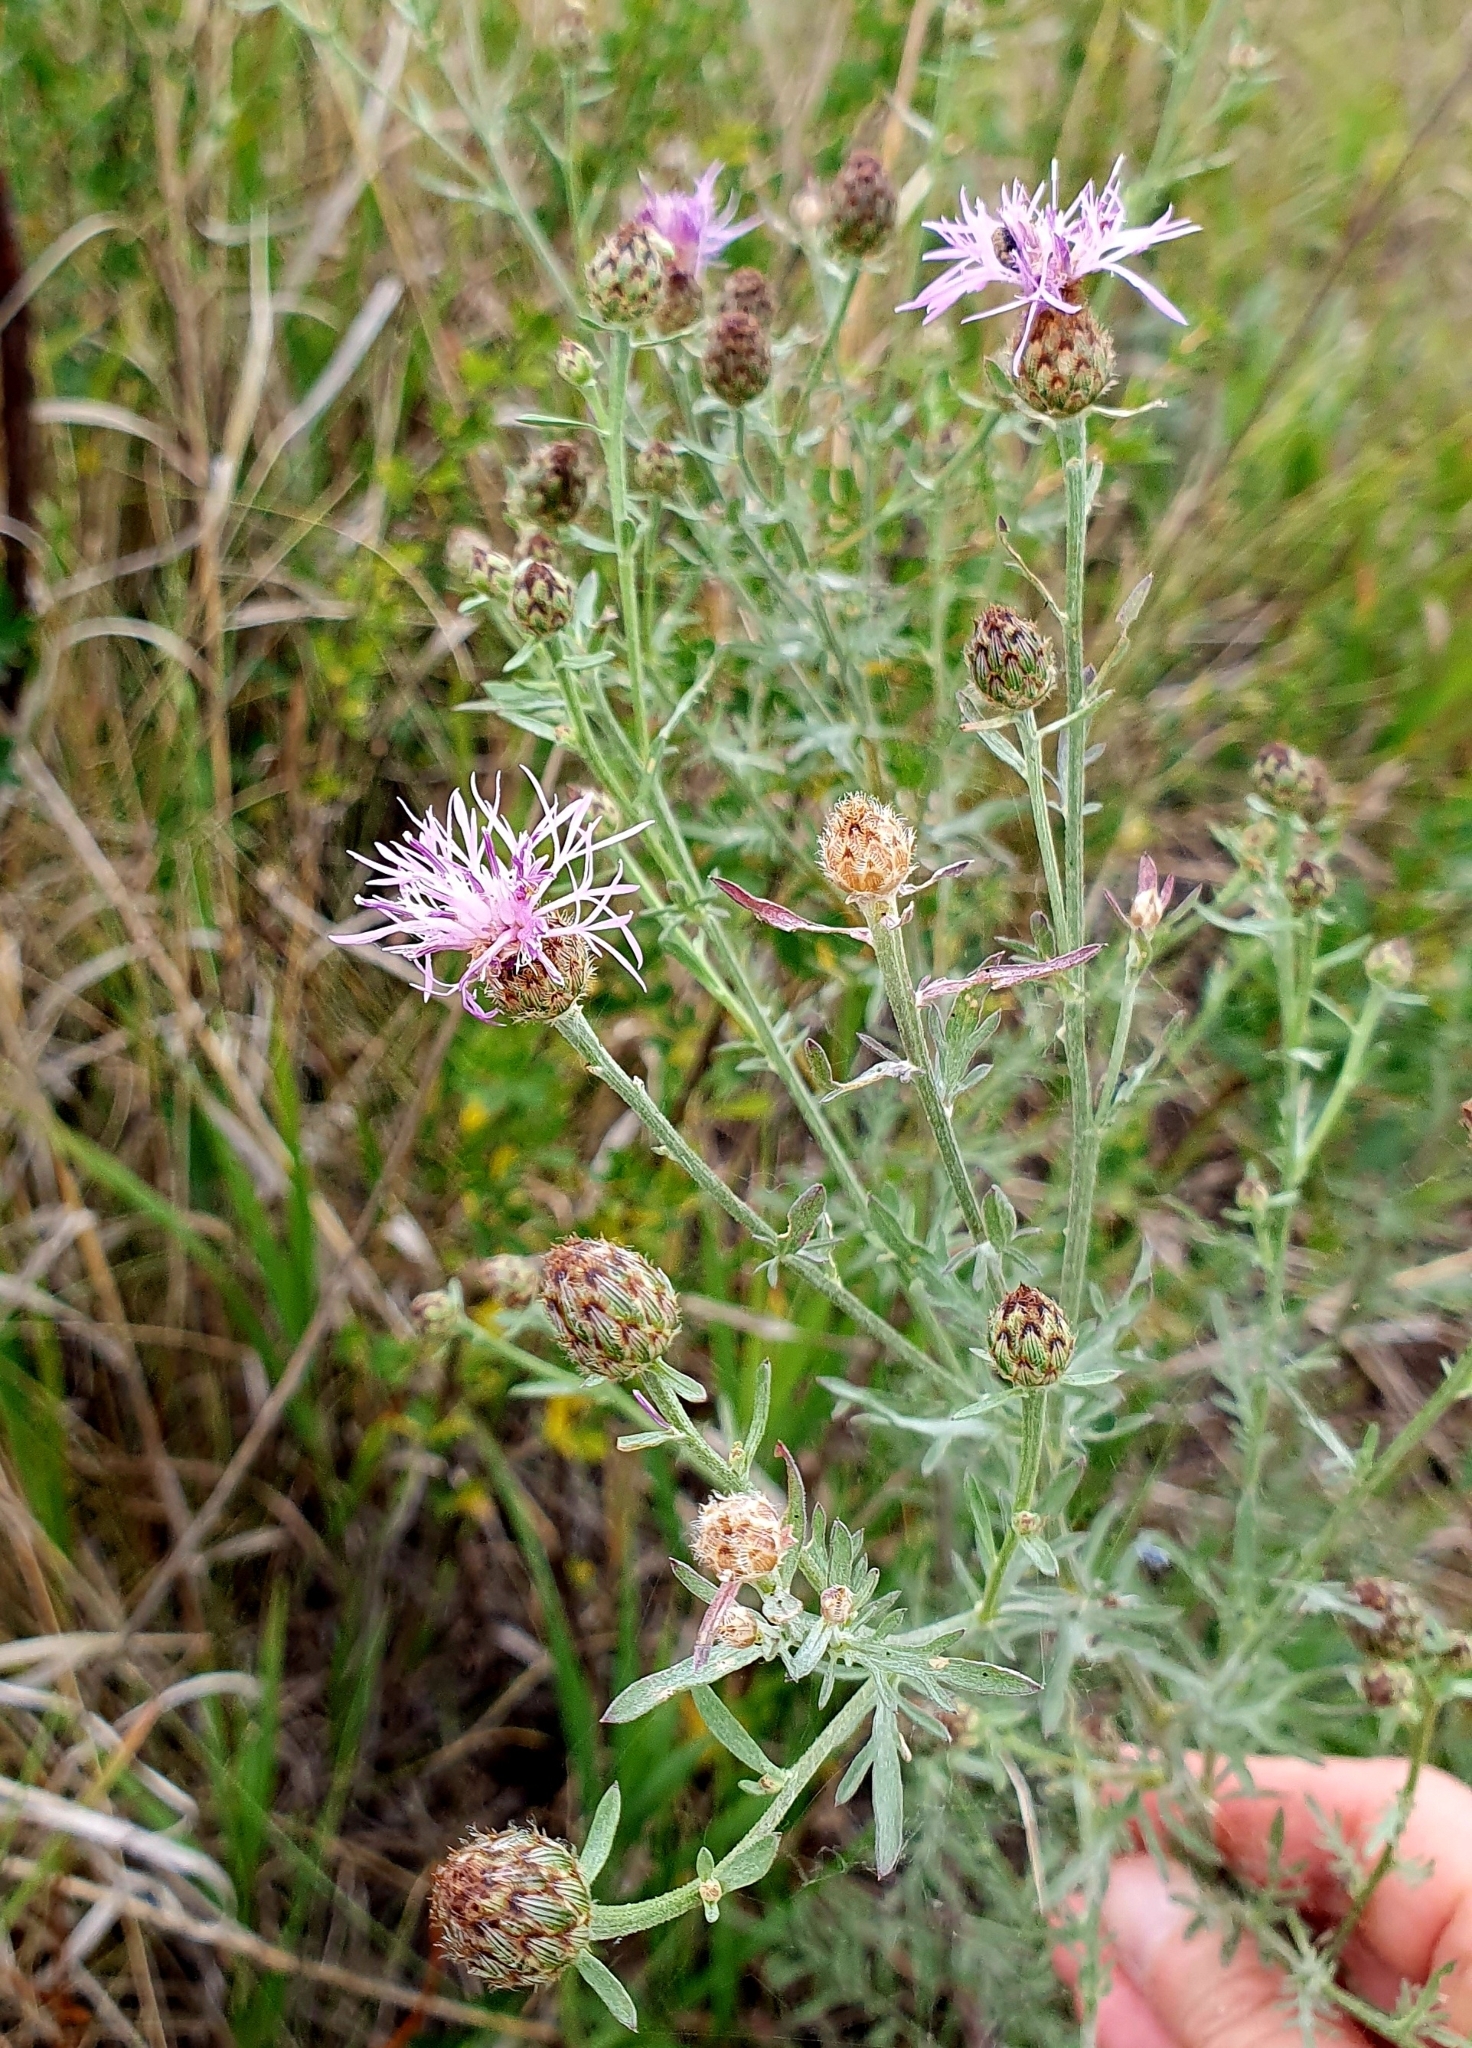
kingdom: Plantae
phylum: Tracheophyta
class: Magnoliopsida
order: Asterales
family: Asteraceae
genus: Centaurea
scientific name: Centaurea stoebe
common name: Spotted knapweed
